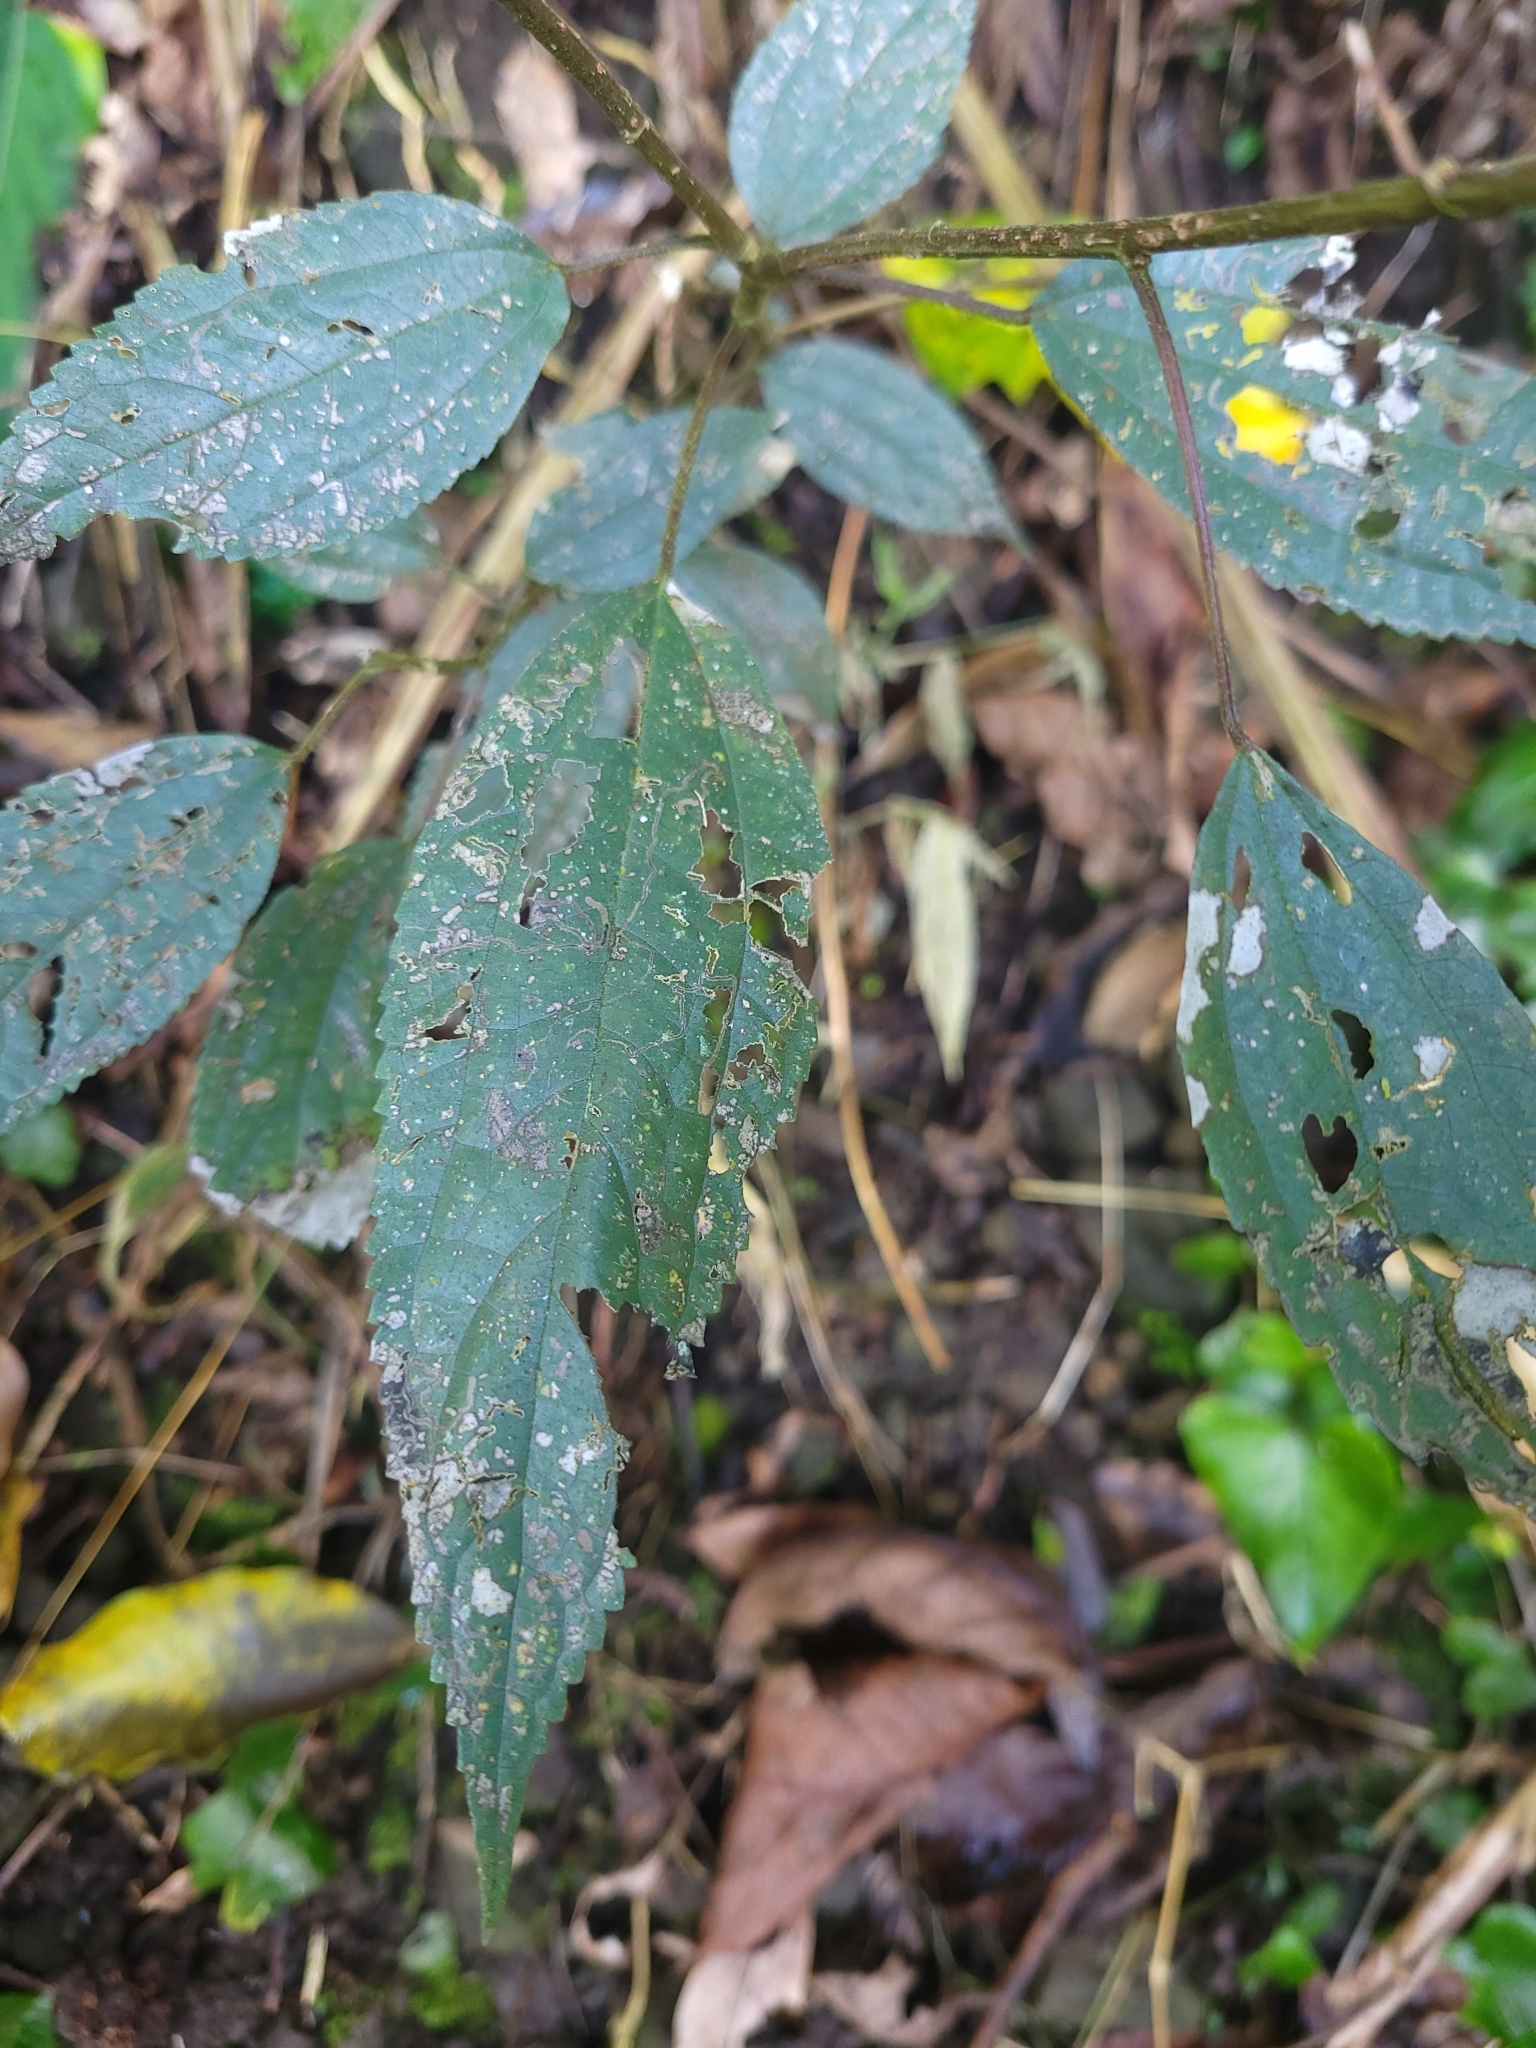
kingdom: Plantae
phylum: Tracheophyta
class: Magnoliopsida
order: Rosales
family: Urticaceae
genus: Oreocnide
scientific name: Oreocnide pedunculata
